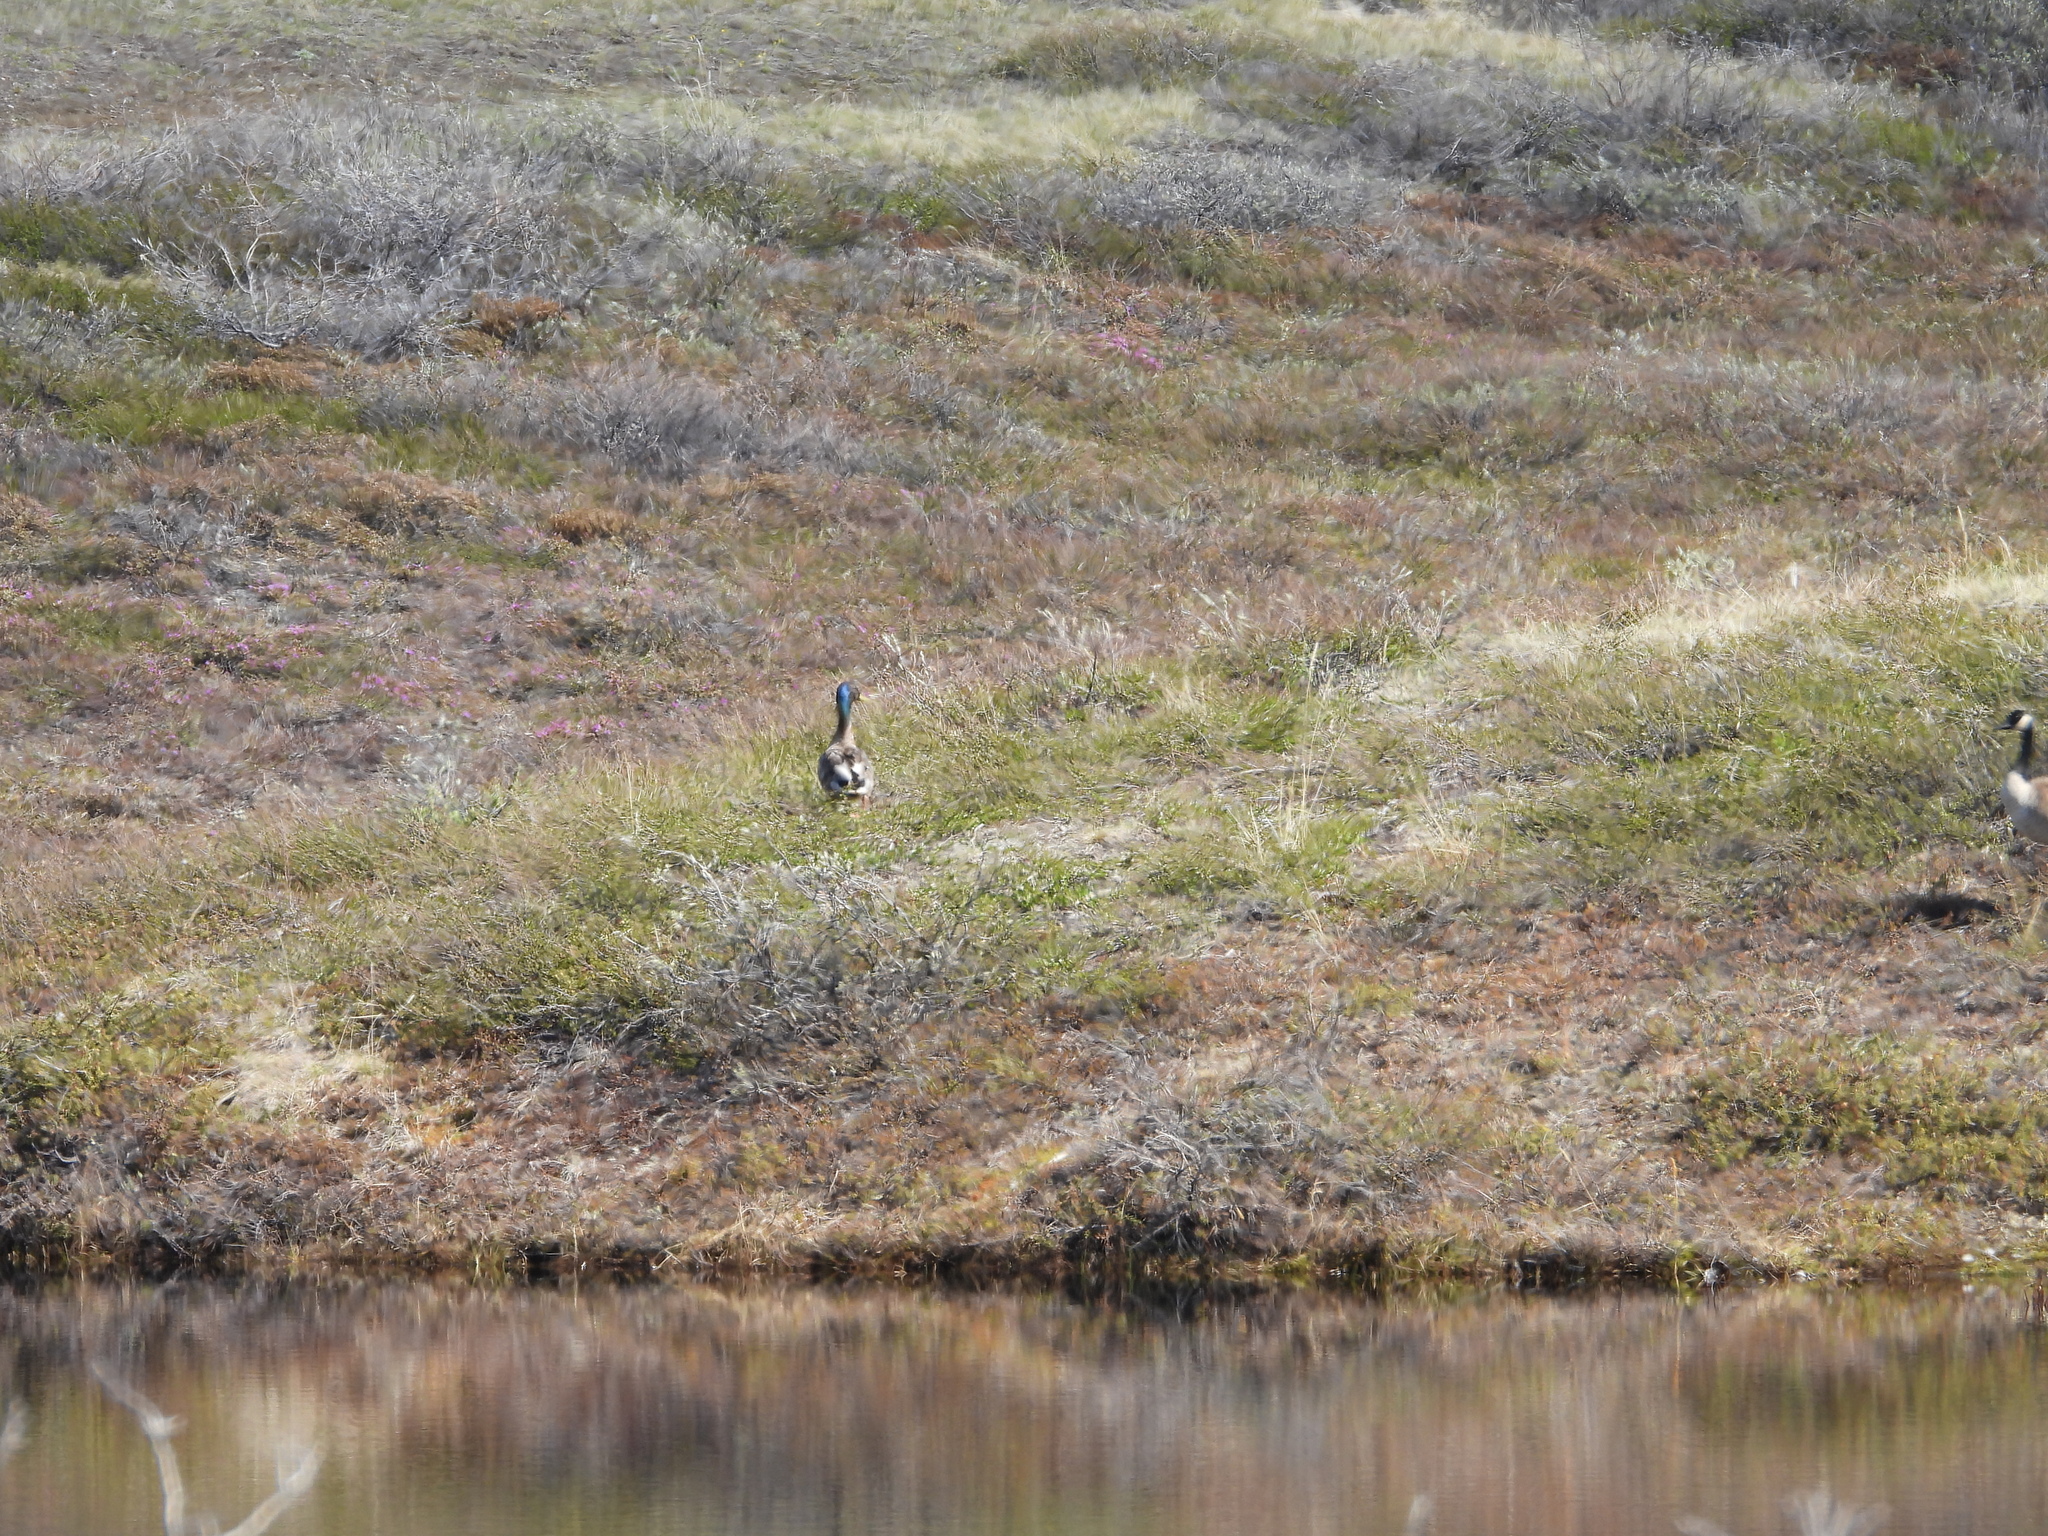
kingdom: Animalia
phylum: Chordata
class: Aves
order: Anseriformes
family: Anatidae
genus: Anas
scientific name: Anas platyrhynchos
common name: Mallard
